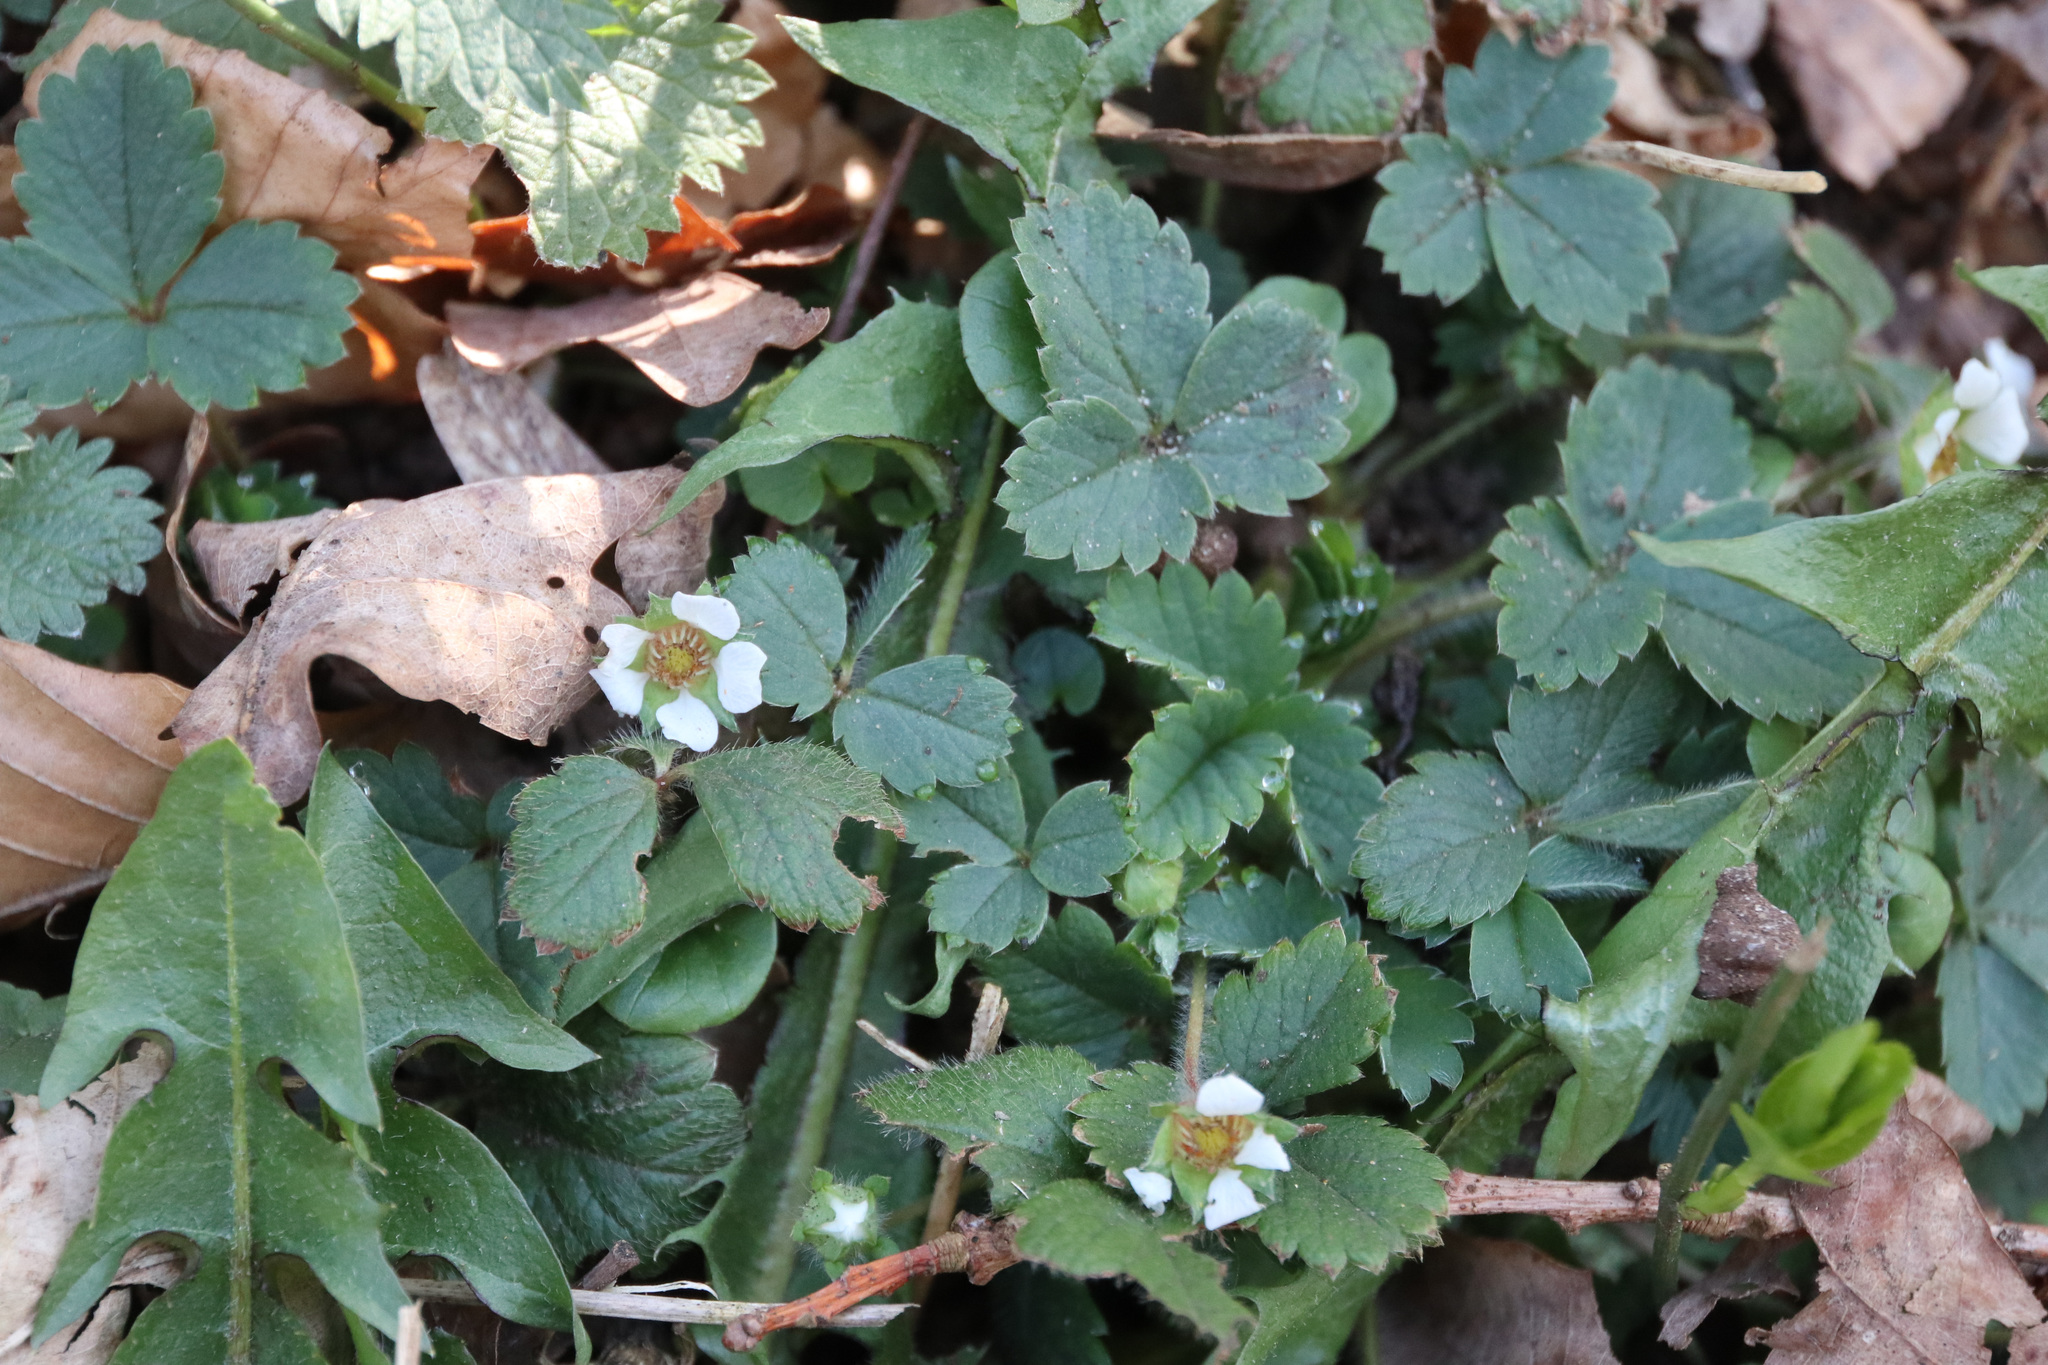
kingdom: Plantae
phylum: Tracheophyta
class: Magnoliopsida
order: Rosales
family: Rosaceae
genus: Potentilla
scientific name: Potentilla sterilis
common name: Barren strawberry
